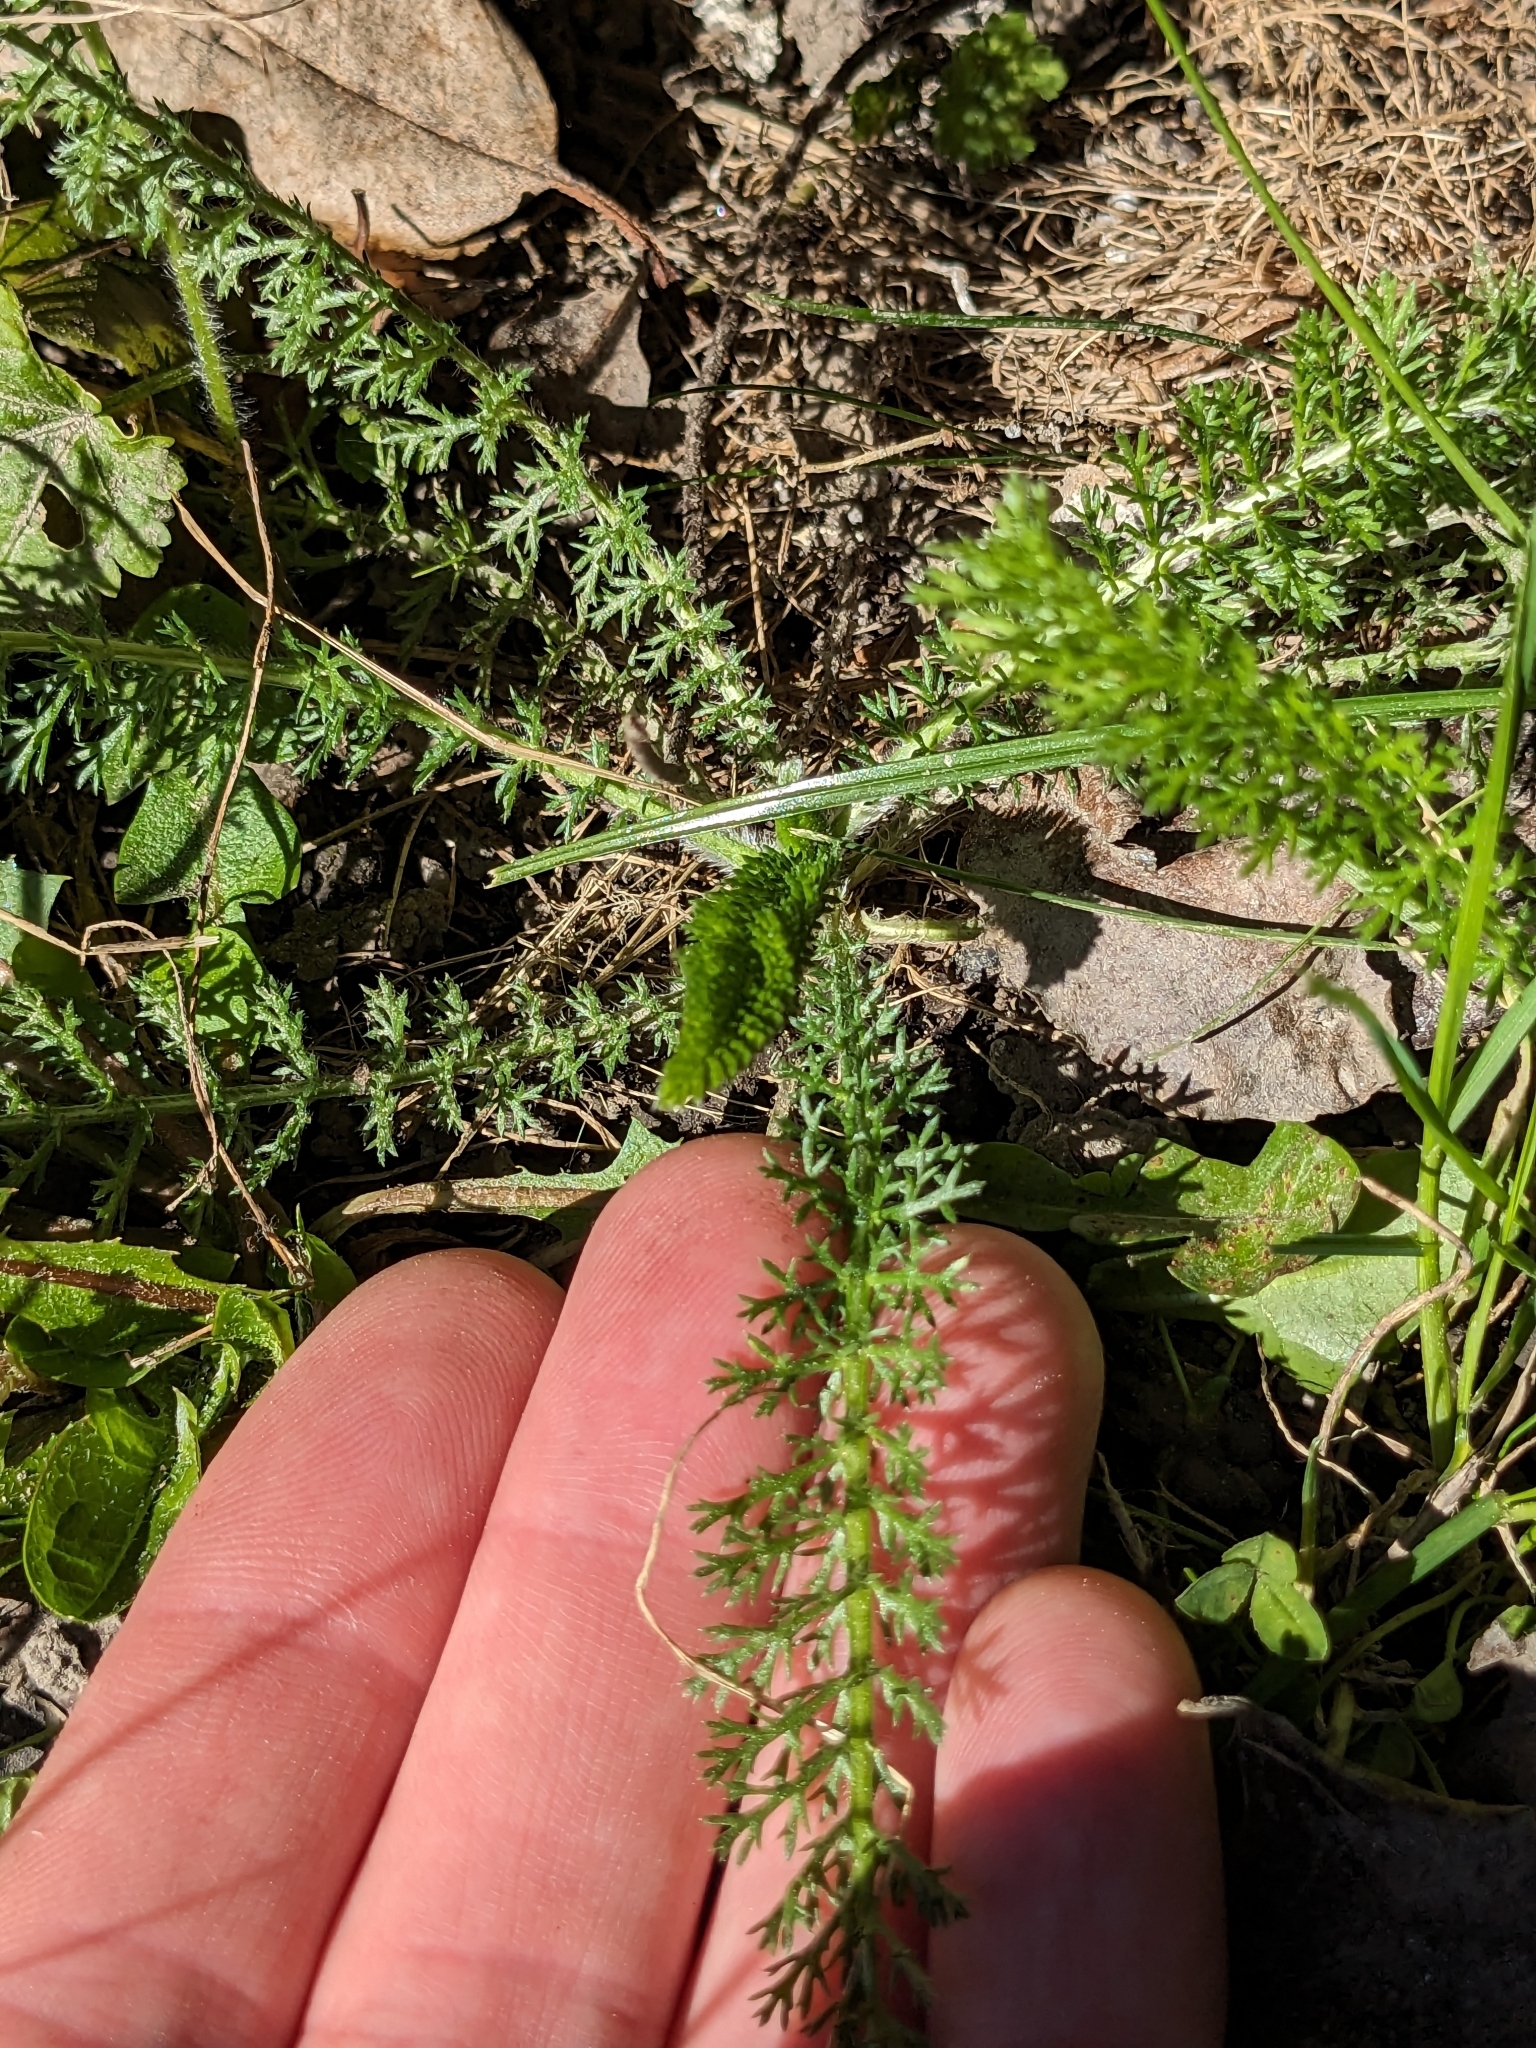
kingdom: Plantae
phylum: Tracheophyta
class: Magnoliopsida
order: Asterales
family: Asteraceae
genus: Achillea
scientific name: Achillea millefolium
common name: Yarrow
